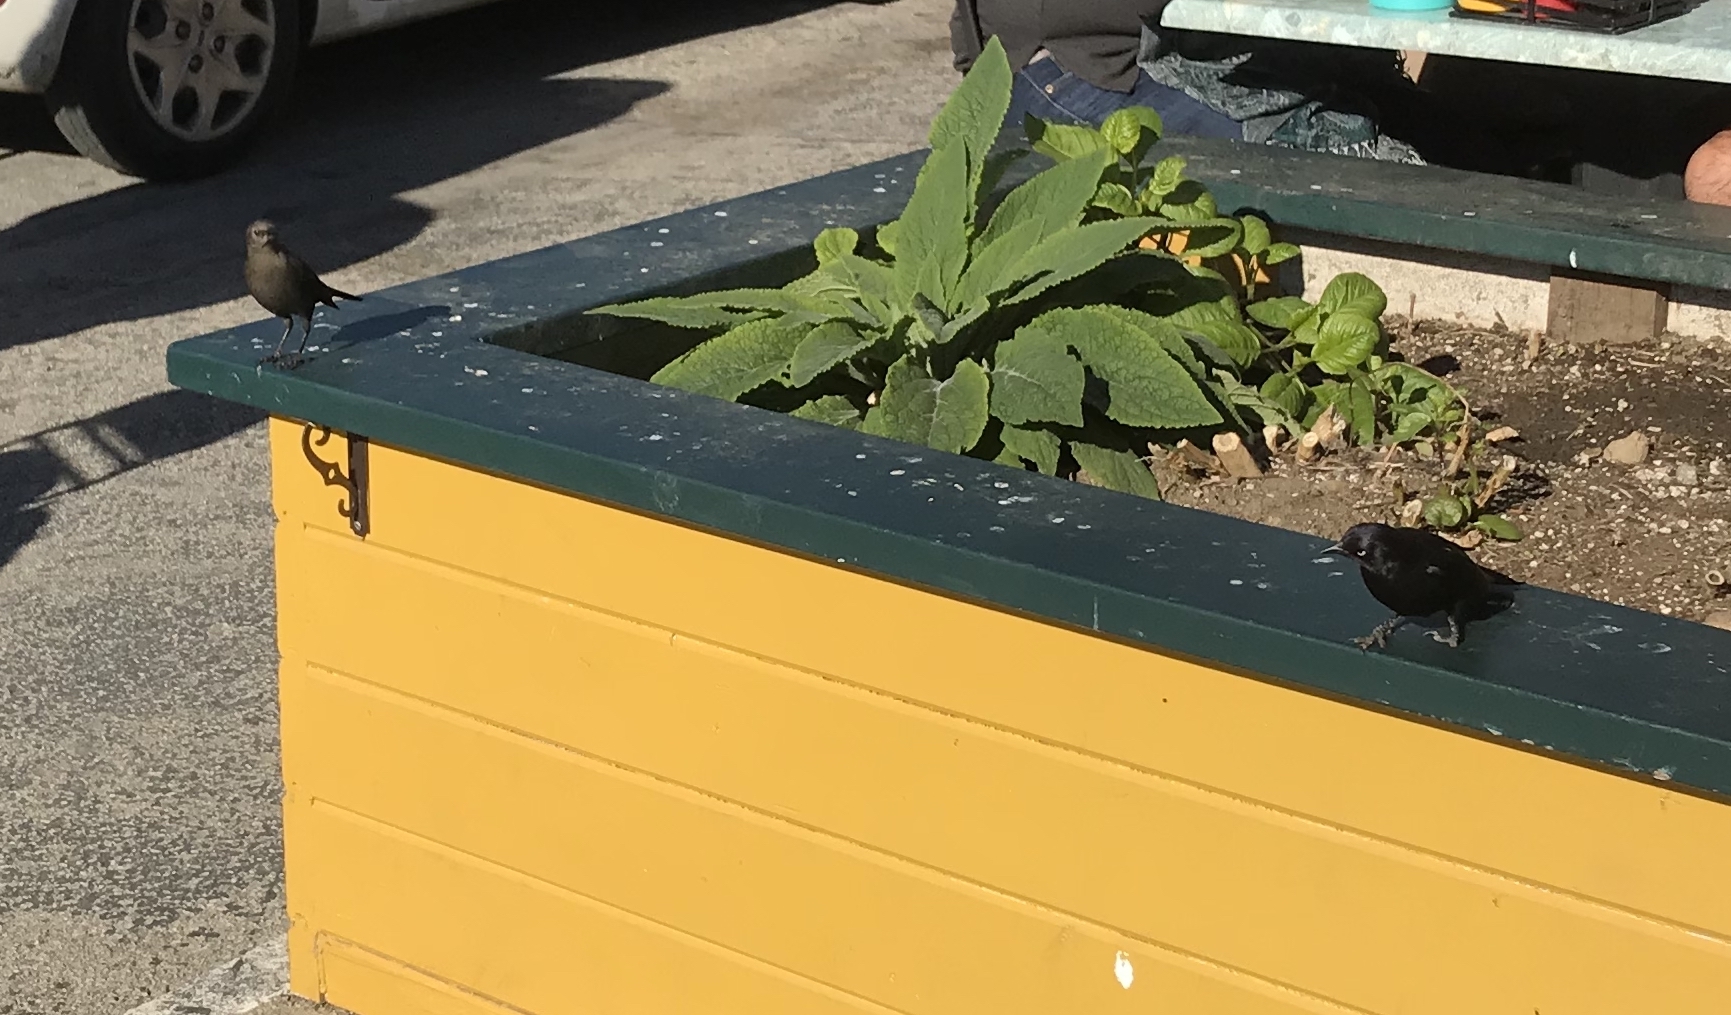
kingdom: Animalia
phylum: Chordata
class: Aves
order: Passeriformes
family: Icteridae
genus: Euphagus
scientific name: Euphagus cyanocephalus
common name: Brewer's blackbird
